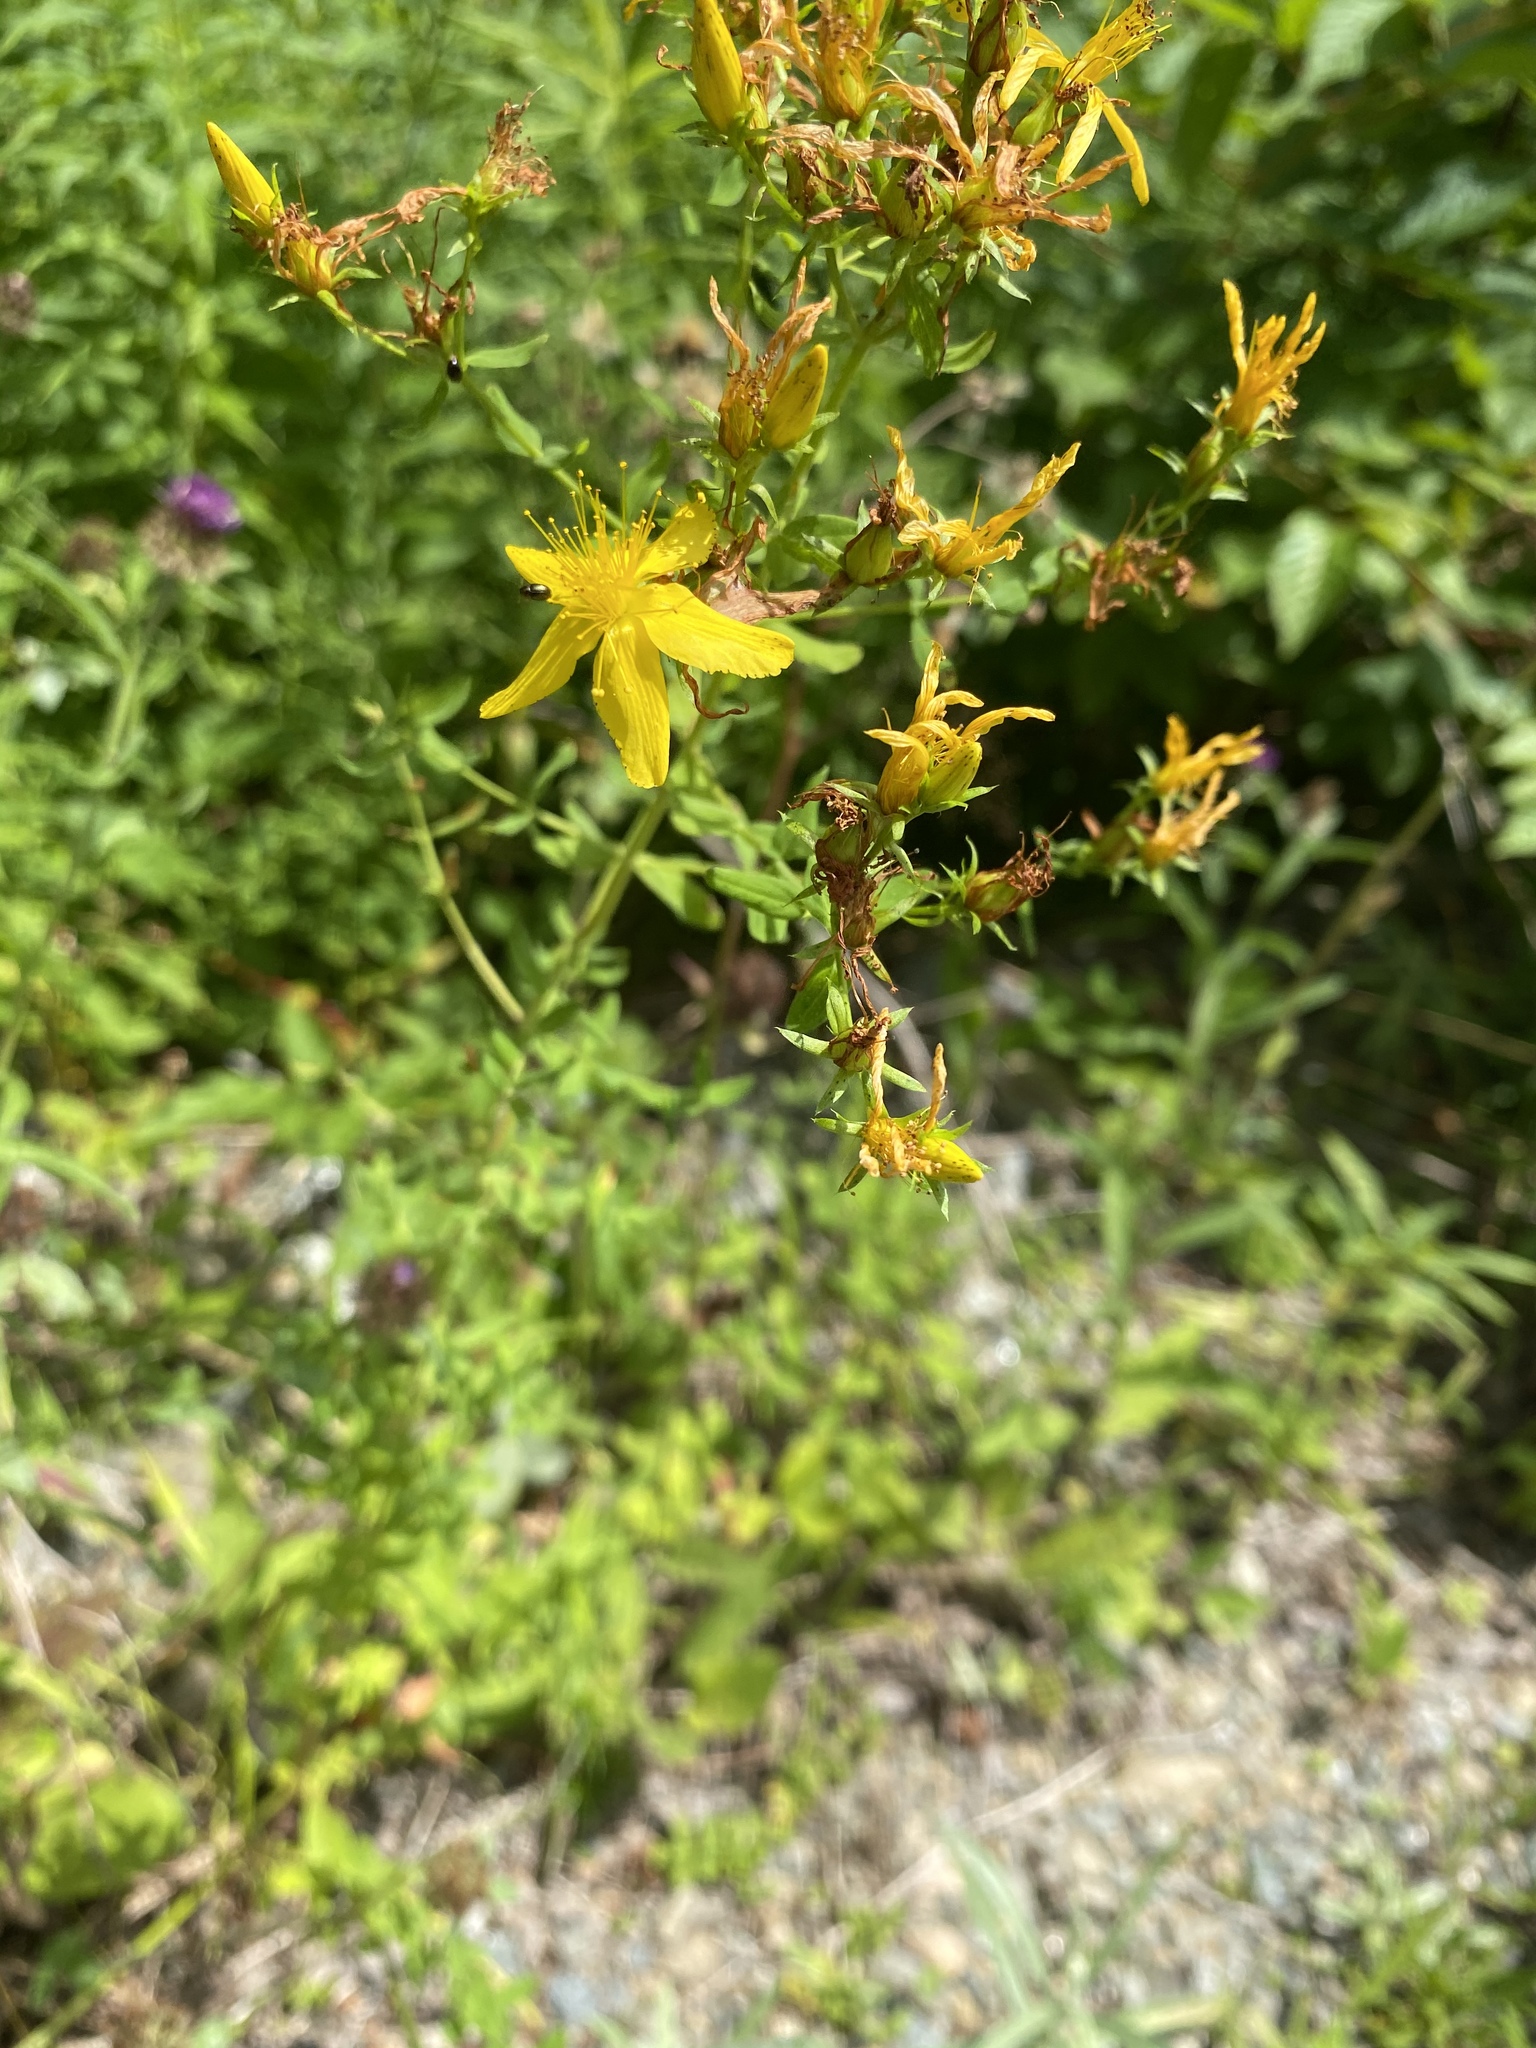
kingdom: Plantae
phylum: Tracheophyta
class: Magnoliopsida
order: Malpighiales
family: Hypericaceae
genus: Hypericum
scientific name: Hypericum perforatum
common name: Common st. johnswort
